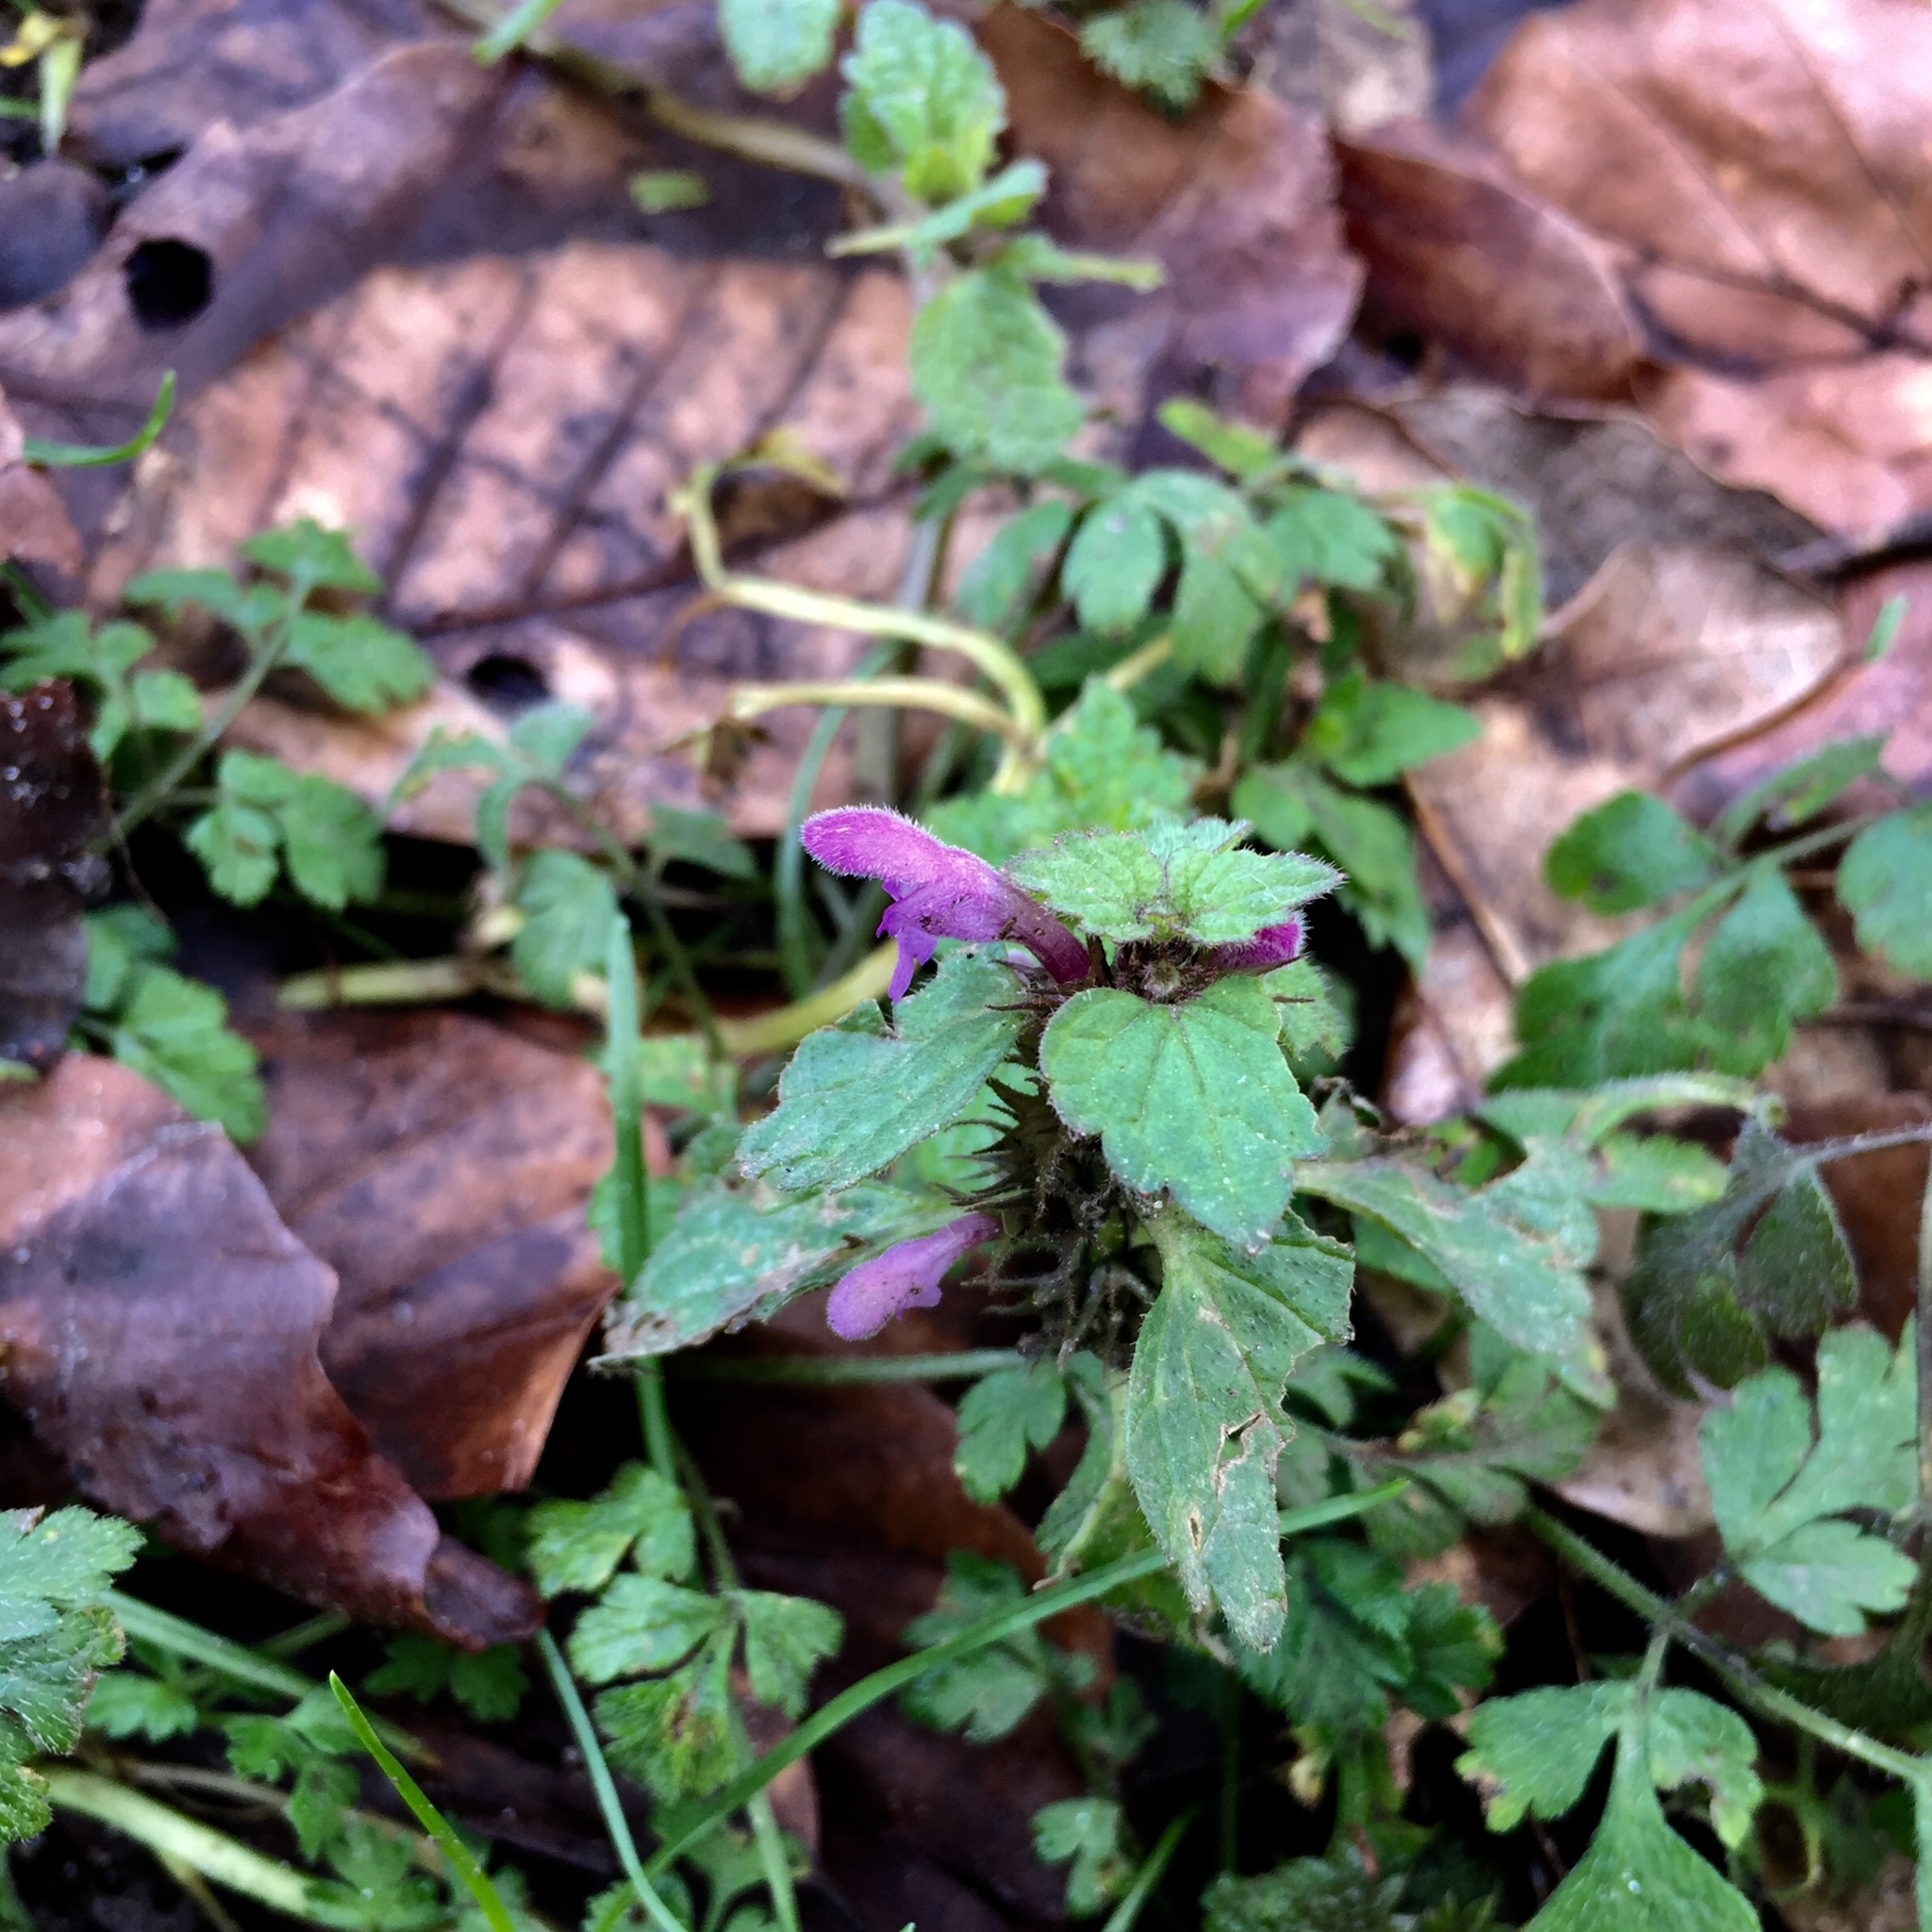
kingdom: Plantae
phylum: Tracheophyta
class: Magnoliopsida
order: Lamiales
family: Lamiaceae
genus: Lamium
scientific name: Lamium purpureum
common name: Red dead-nettle
